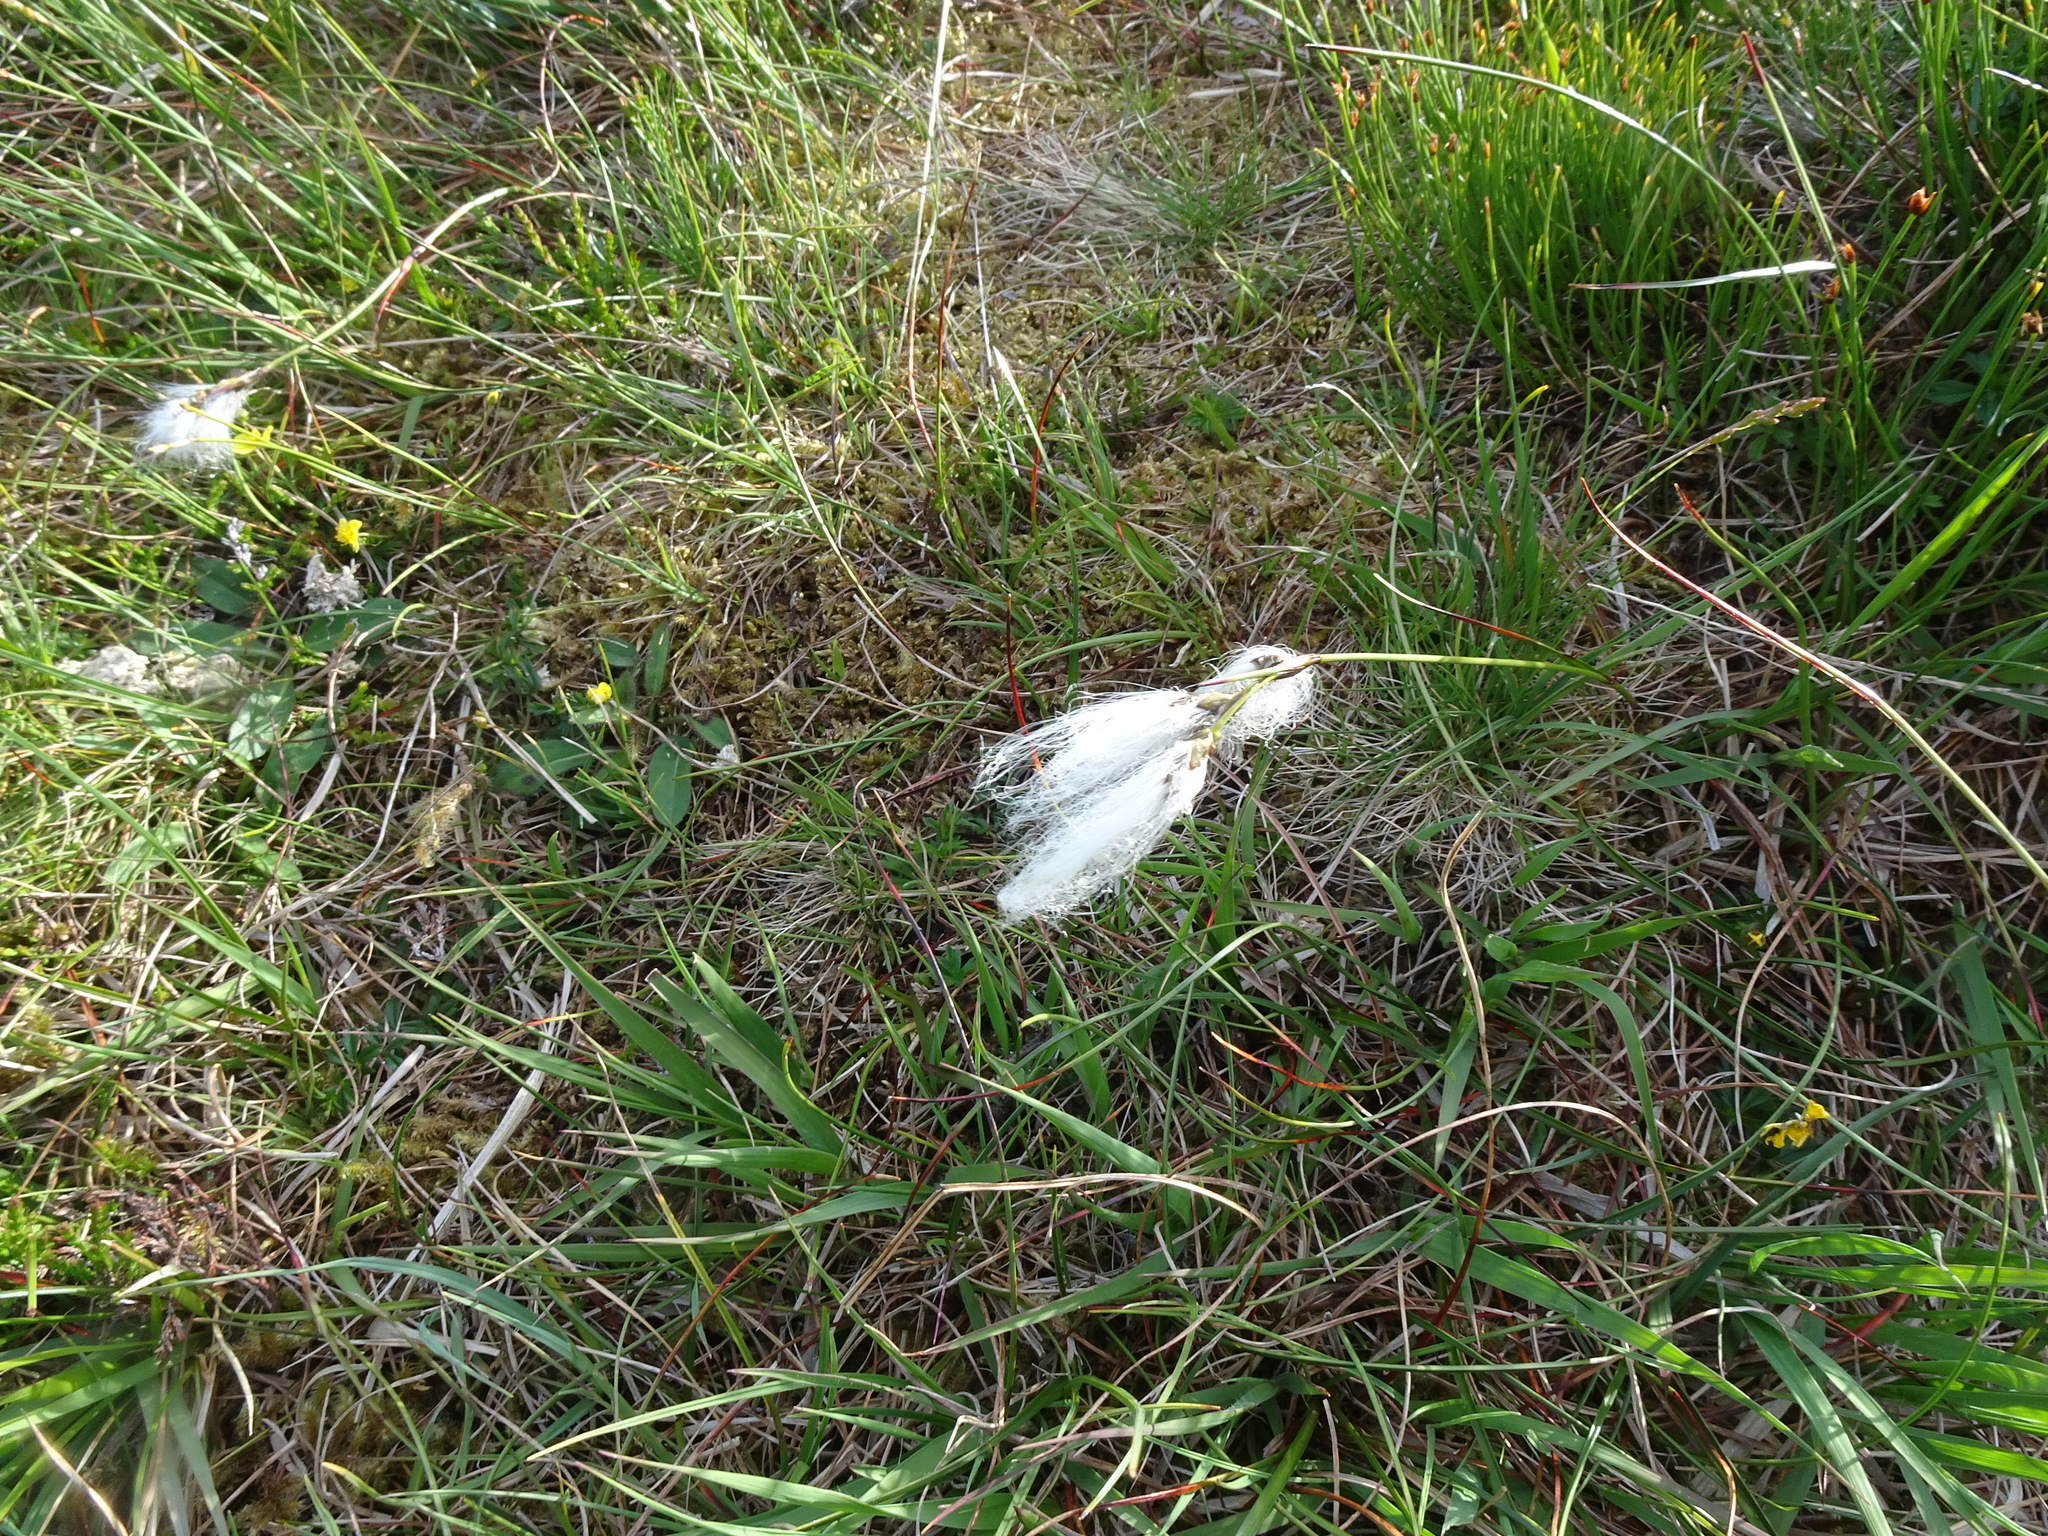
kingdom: Plantae
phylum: Tracheophyta
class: Liliopsida
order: Poales
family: Cyperaceae
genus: Eriophorum
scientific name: Eriophorum angustifolium
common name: Common cottongrass
